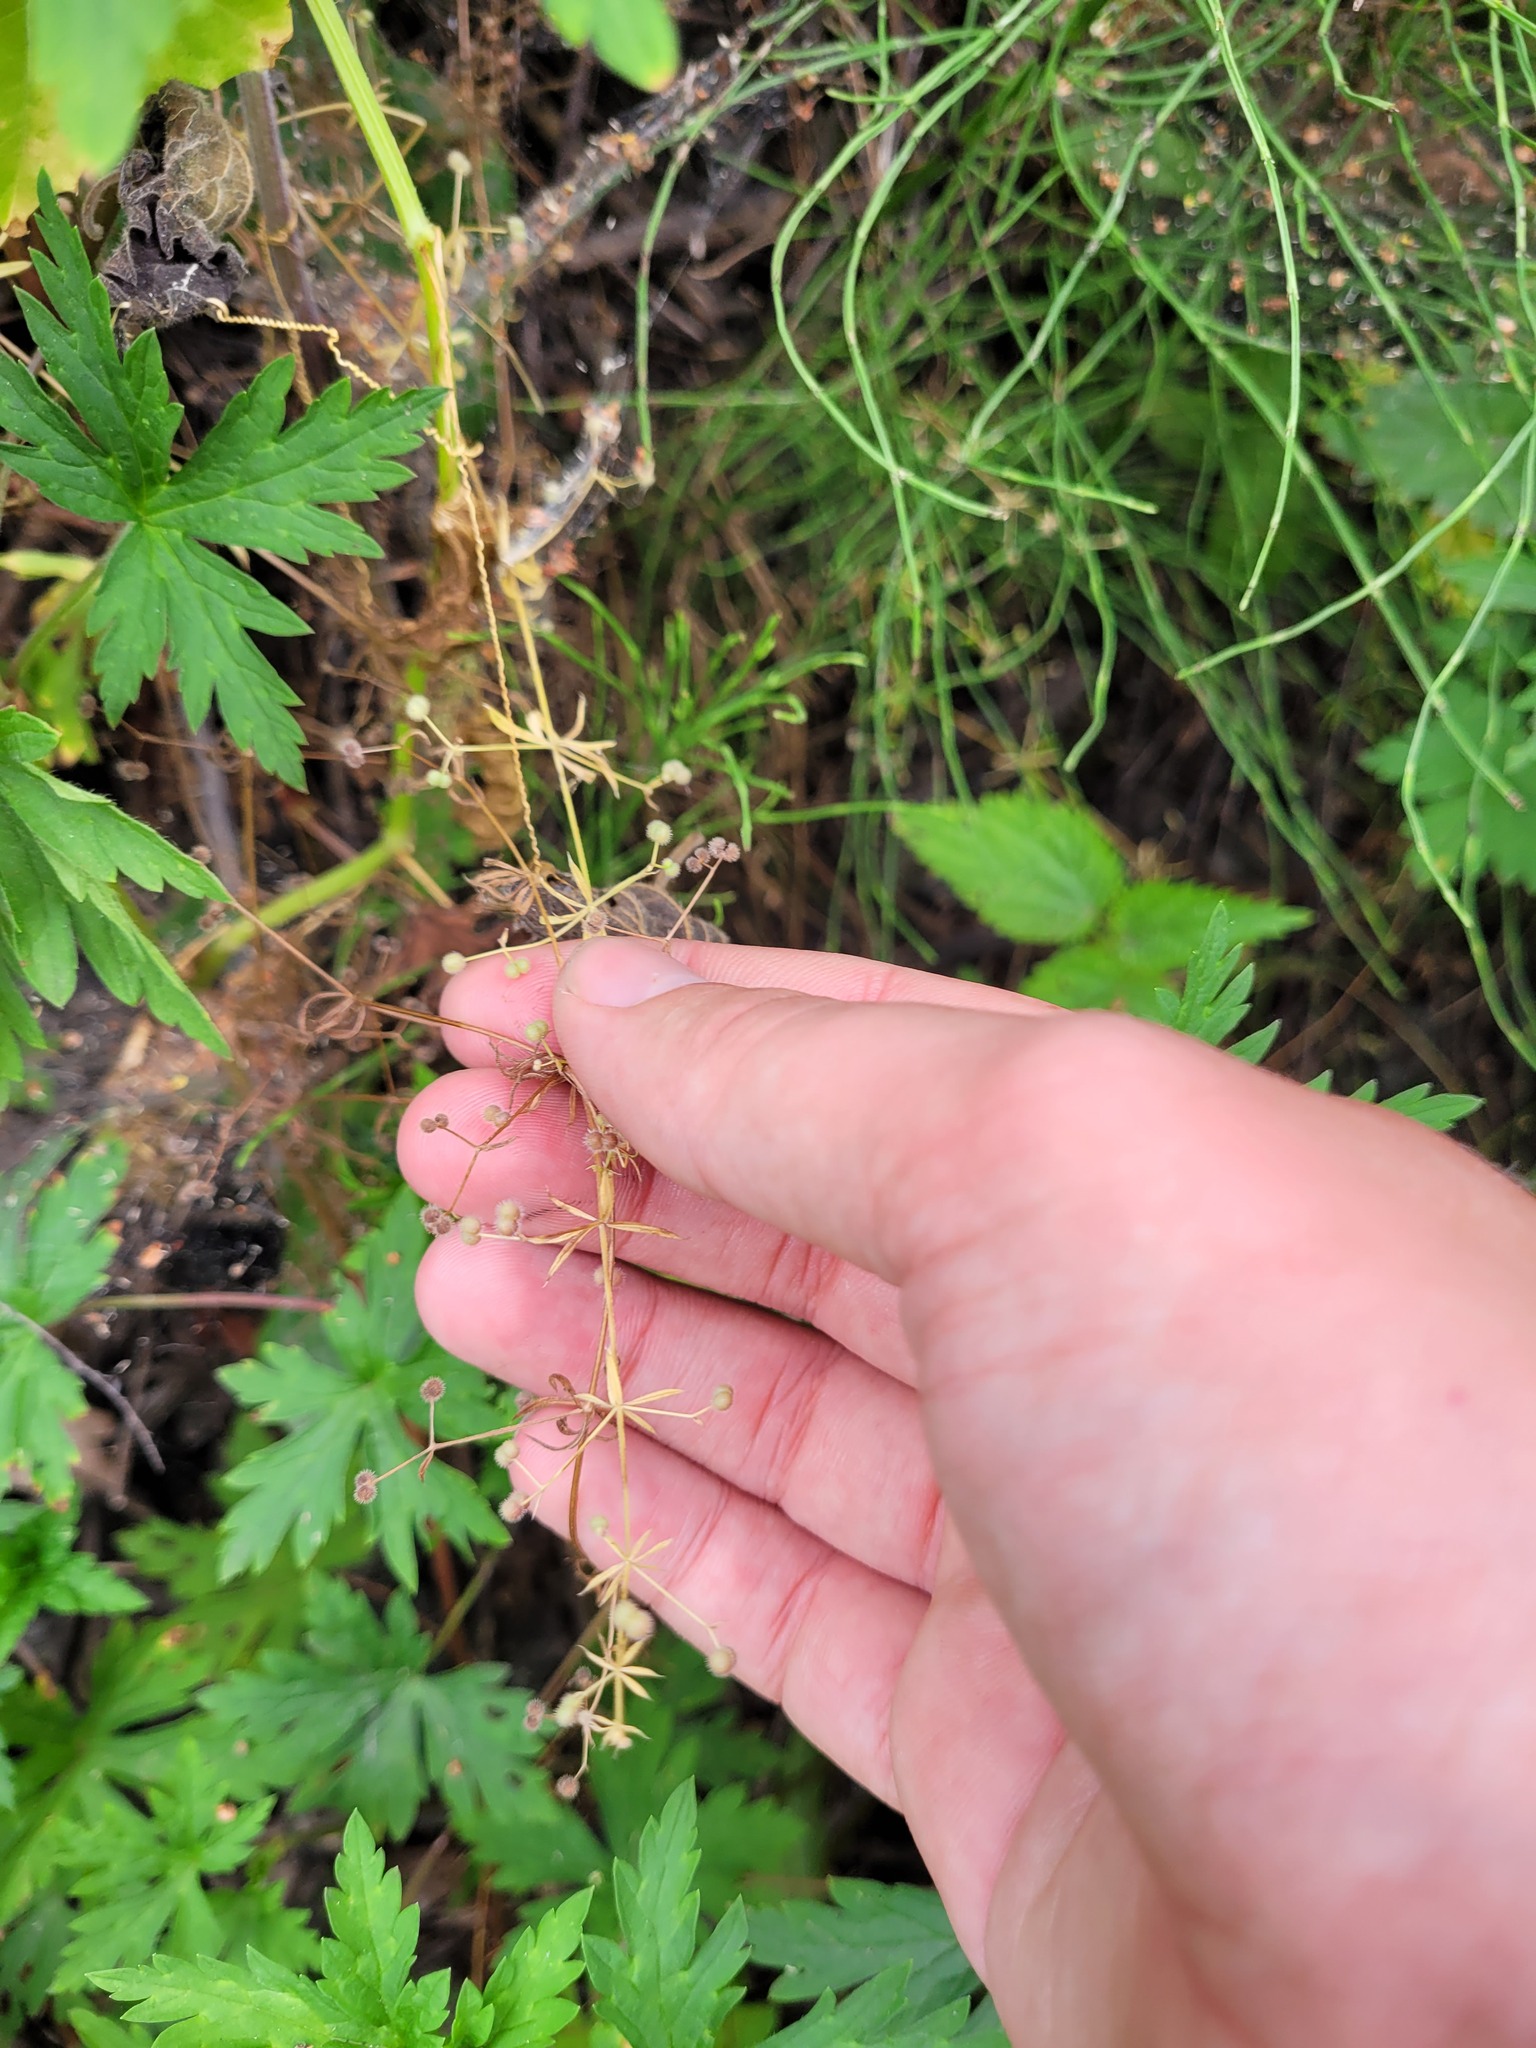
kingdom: Plantae
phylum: Tracheophyta
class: Magnoliopsida
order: Gentianales
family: Rubiaceae
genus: Galium
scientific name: Galium
